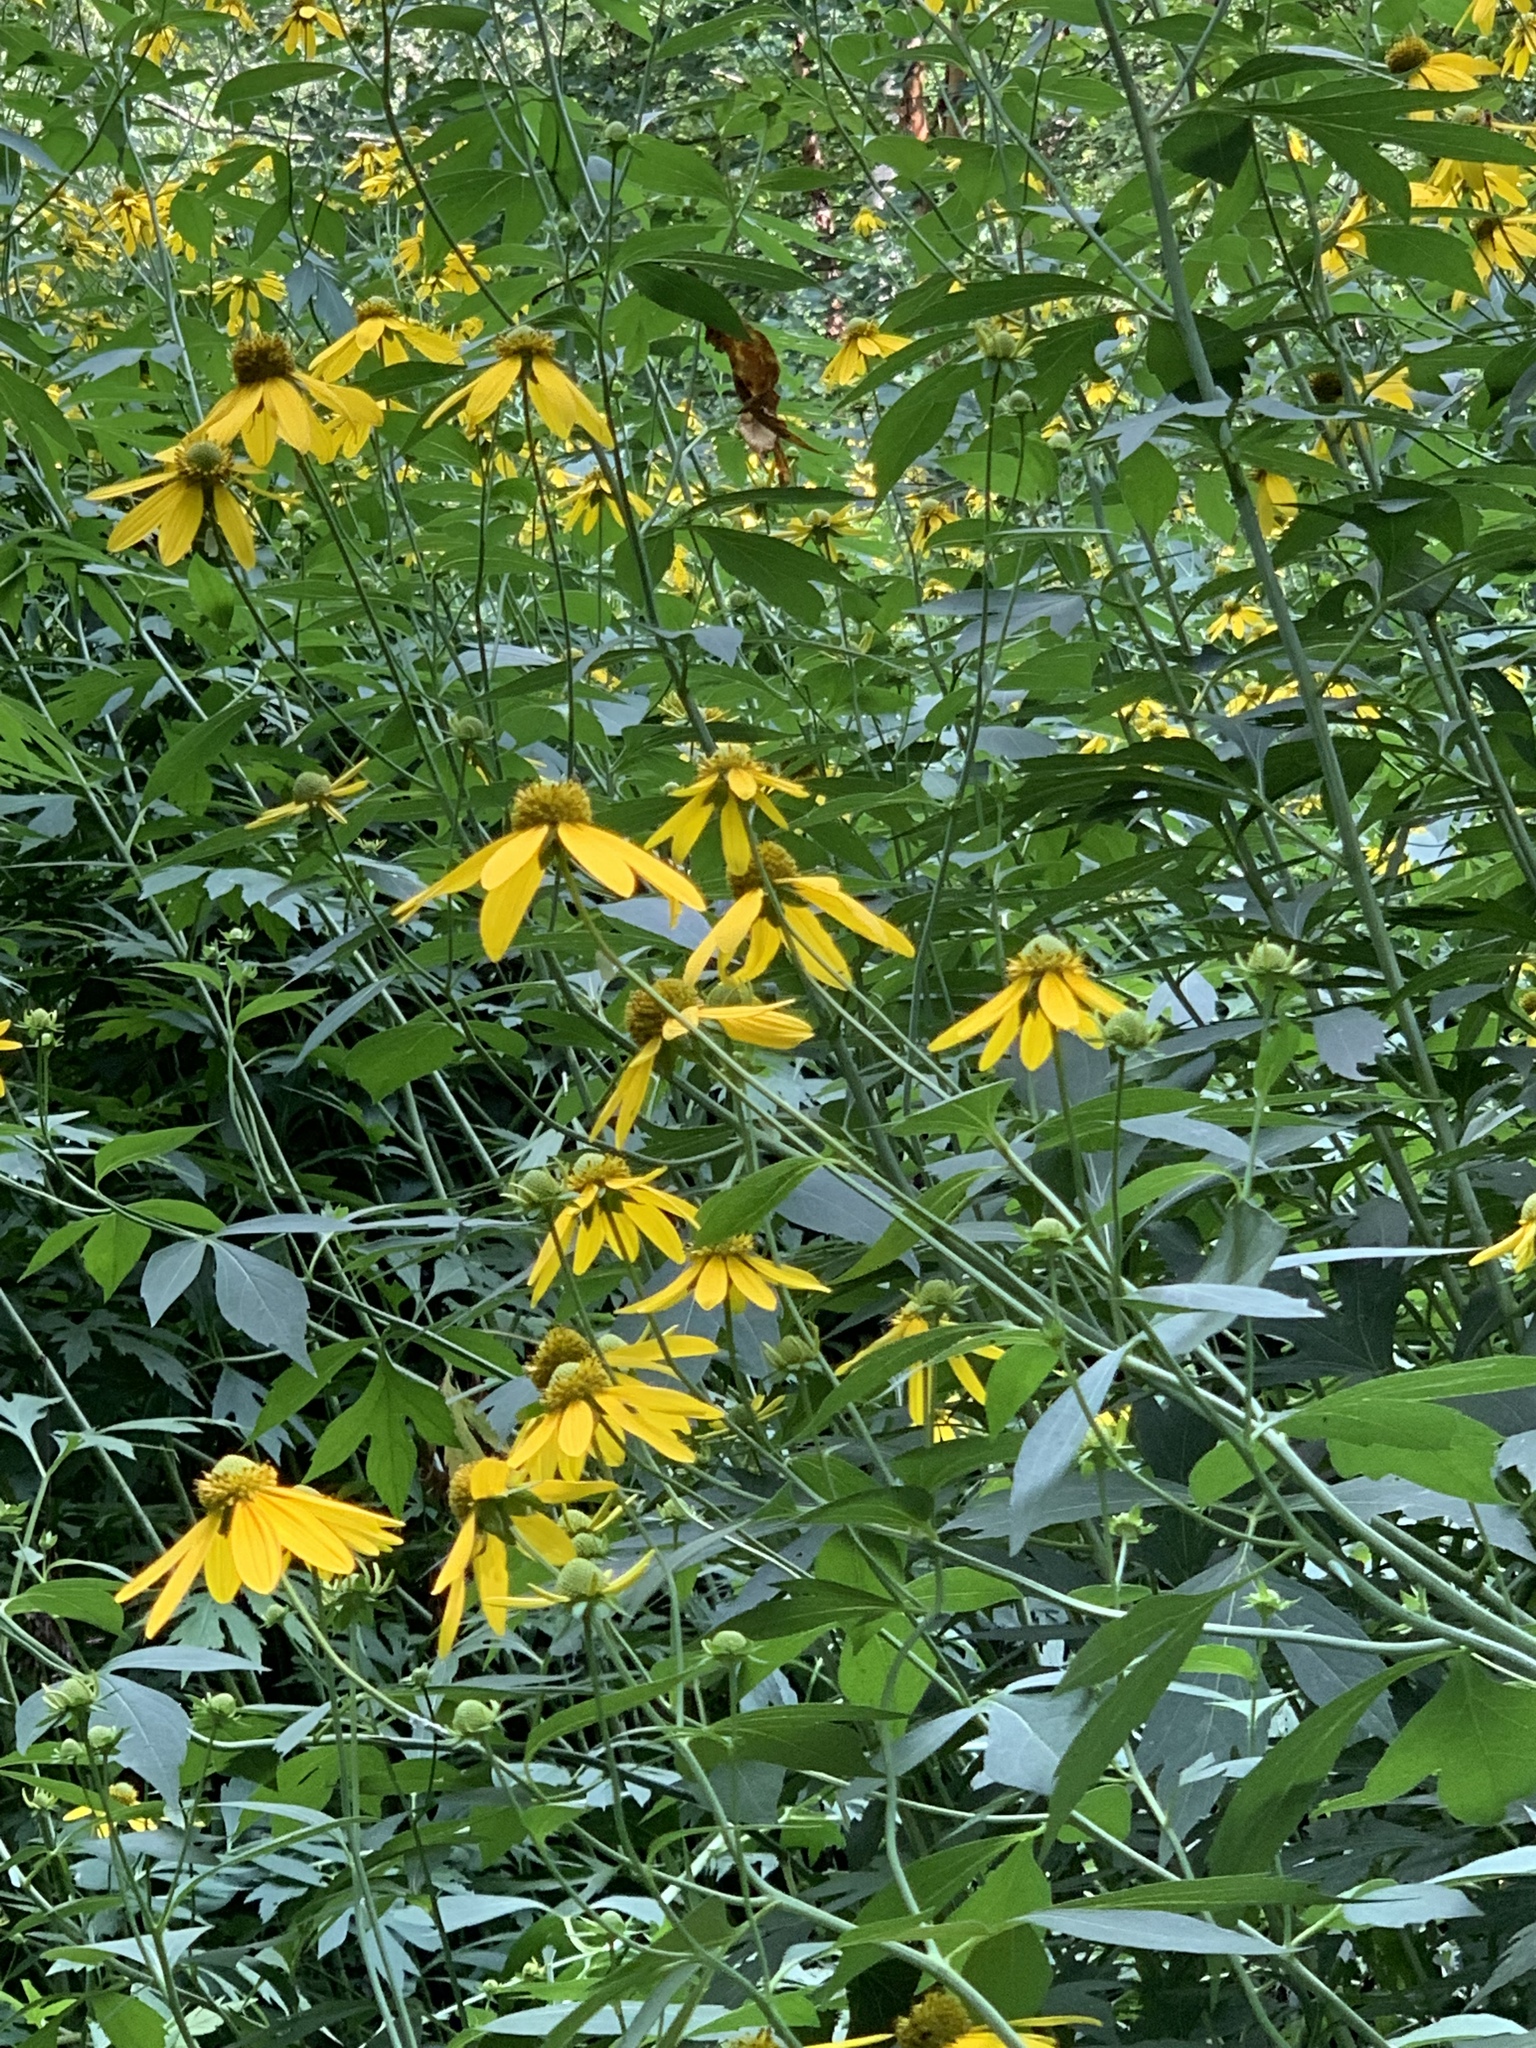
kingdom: Plantae
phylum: Tracheophyta
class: Magnoliopsida
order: Asterales
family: Asteraceae
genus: Rudbeckia
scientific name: Rudbeckia laciniata
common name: Coneflower
